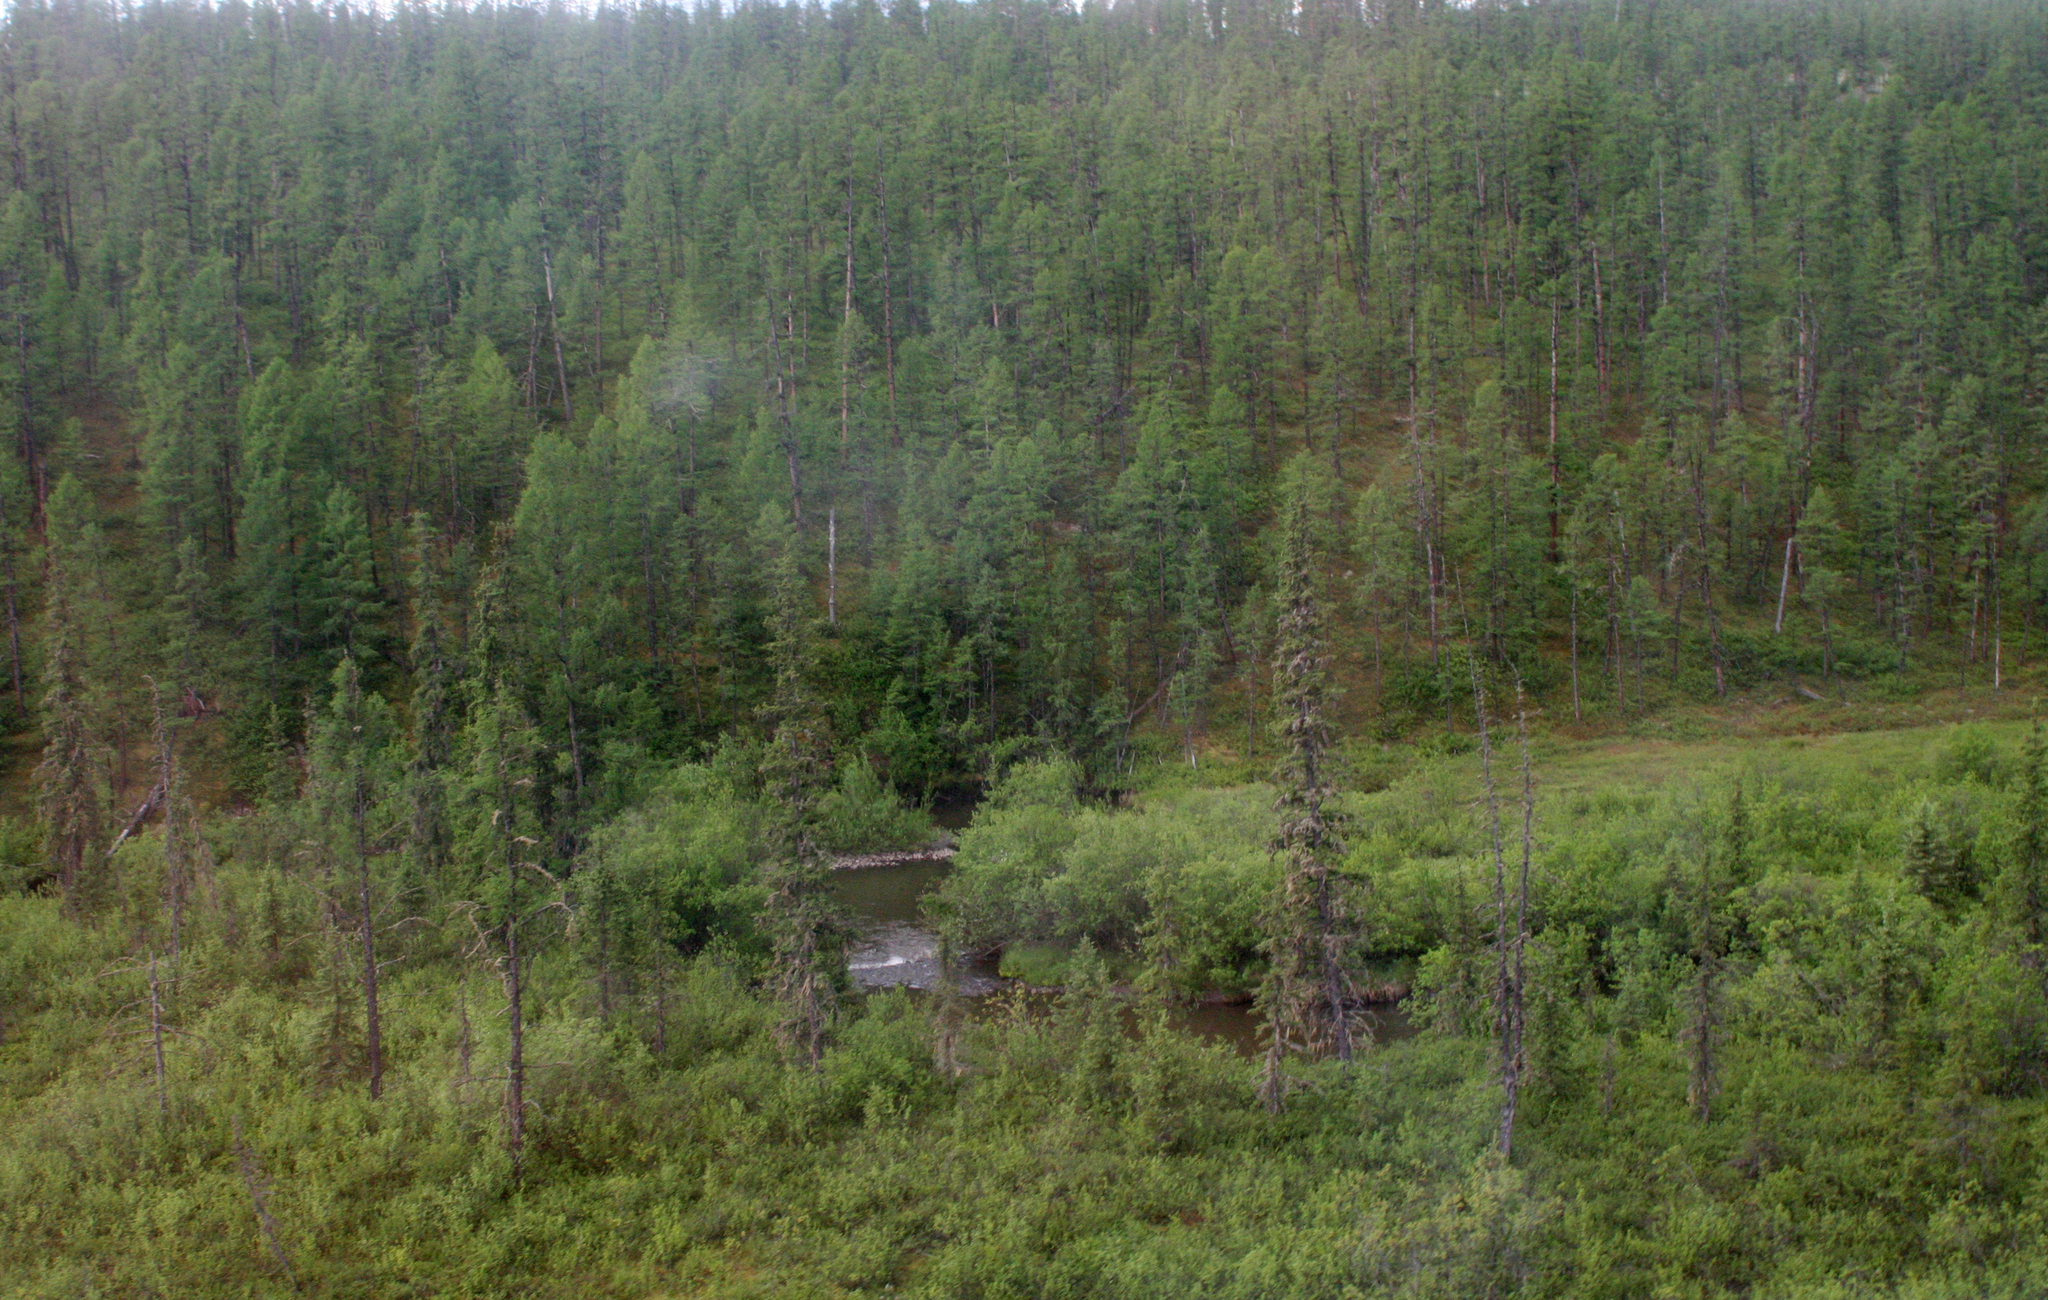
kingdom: Plantae
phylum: Tracheophyta
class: Pinopsida
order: Pinales
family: Pinaceae
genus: Pinus
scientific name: Pinus sibirica
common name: Siberian pine
